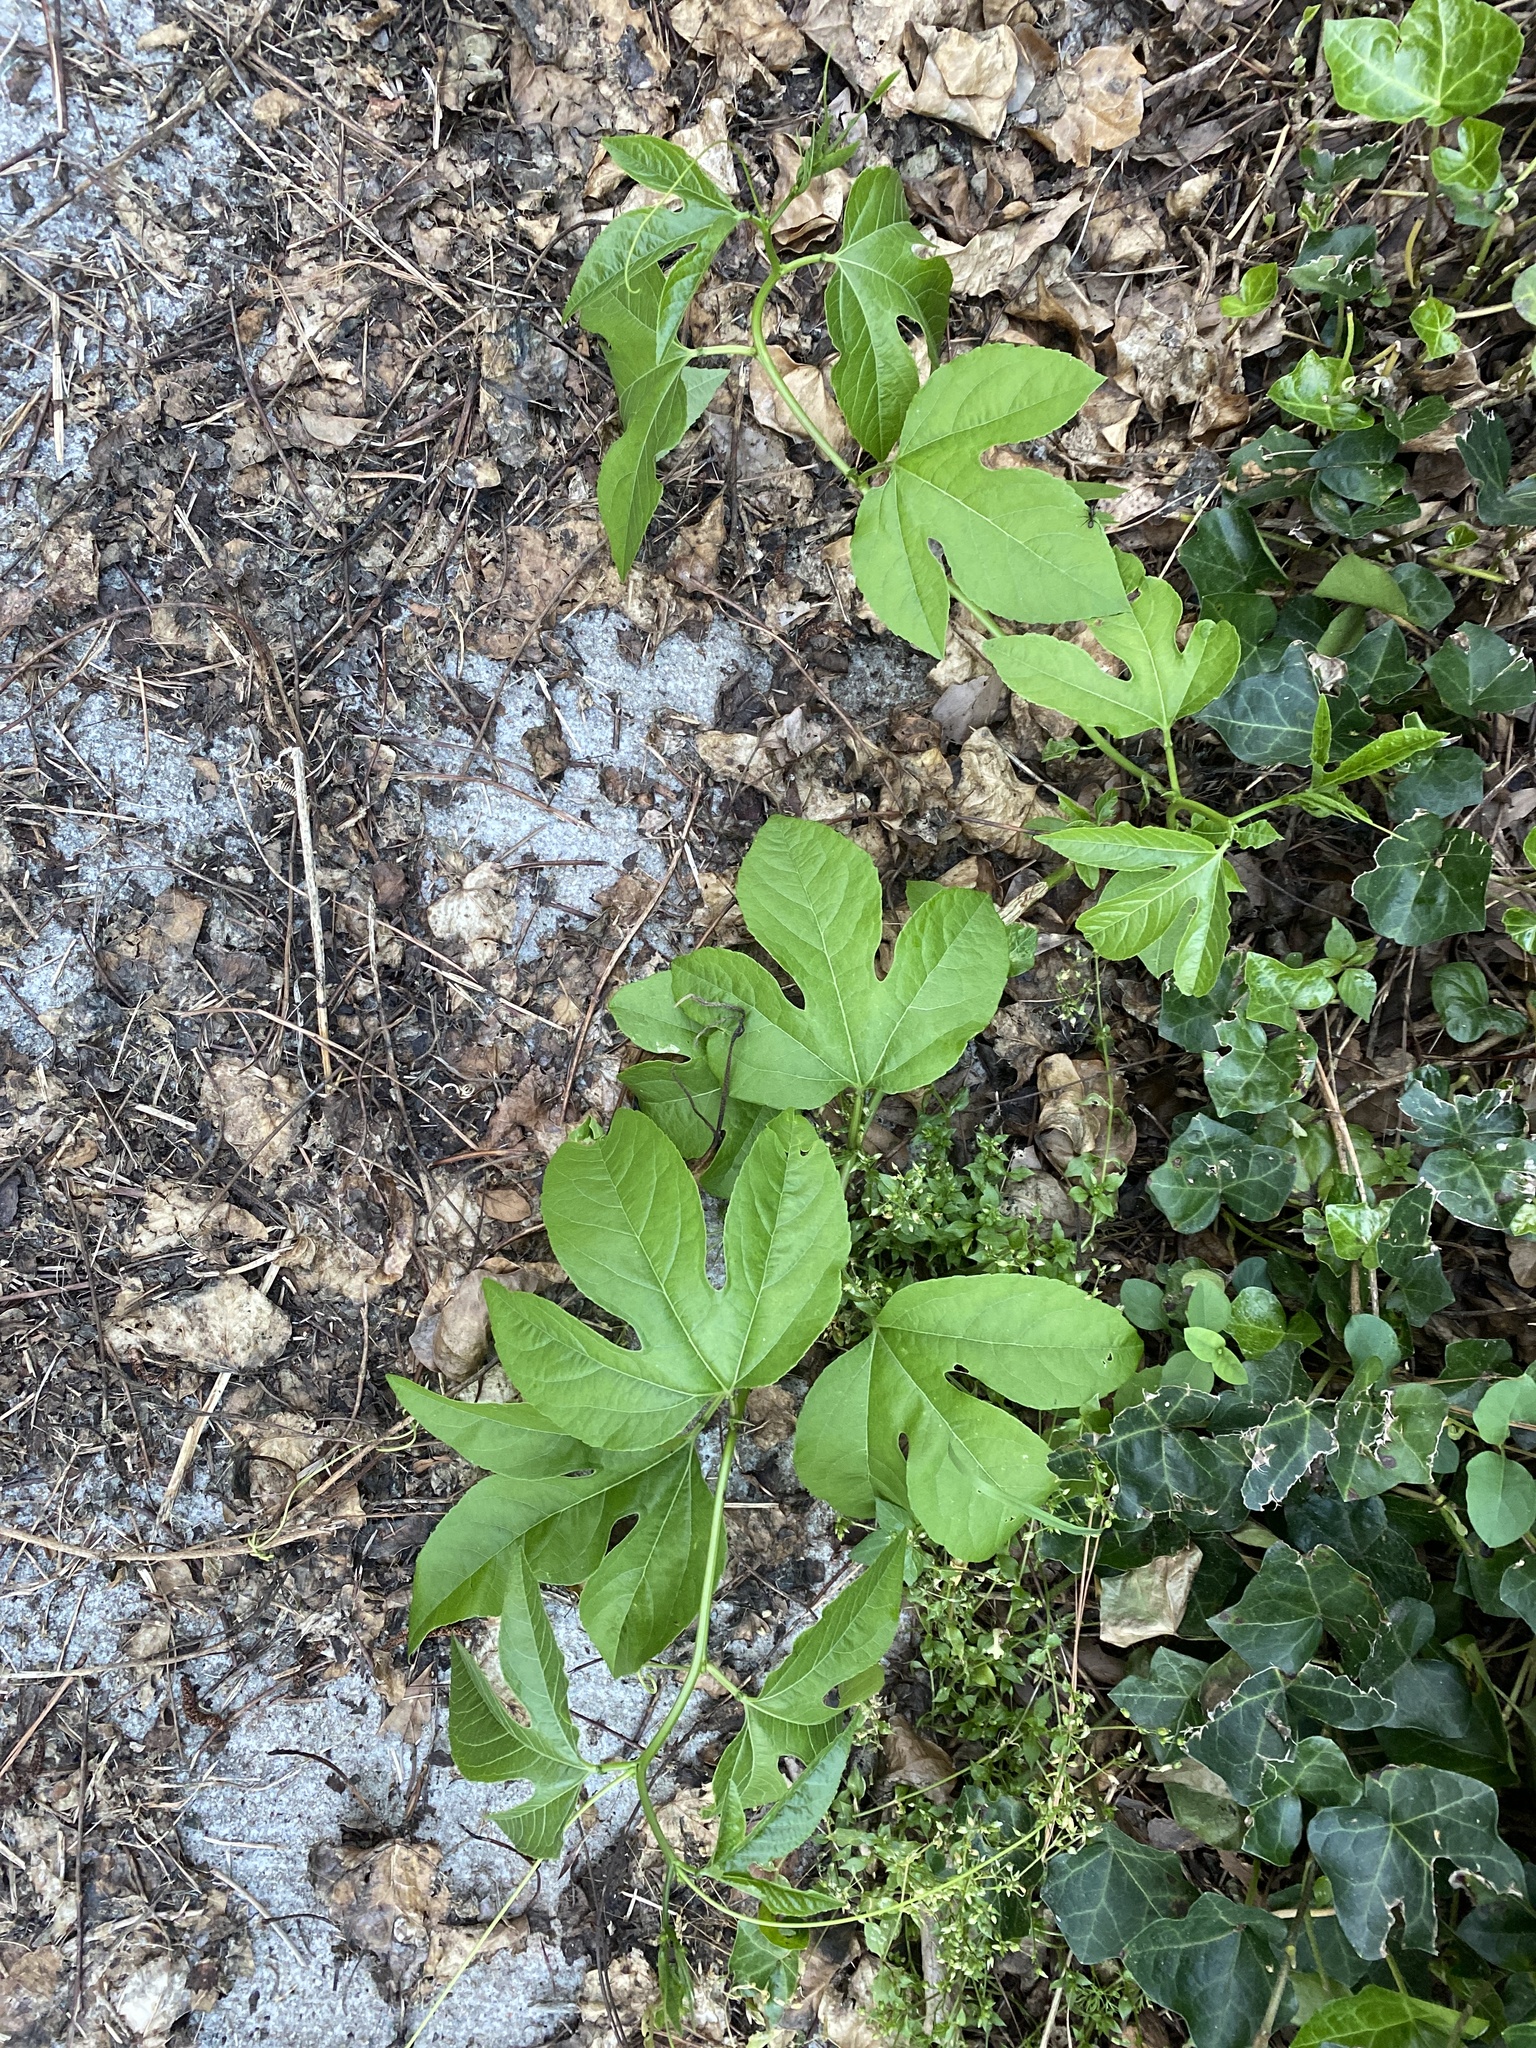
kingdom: Plantae
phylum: Tracheophyta
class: Magnoliopsida
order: Malpighiales
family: Passifloraceae
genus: Passiflora
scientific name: Passiflora incarnata
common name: Apricot-vine
